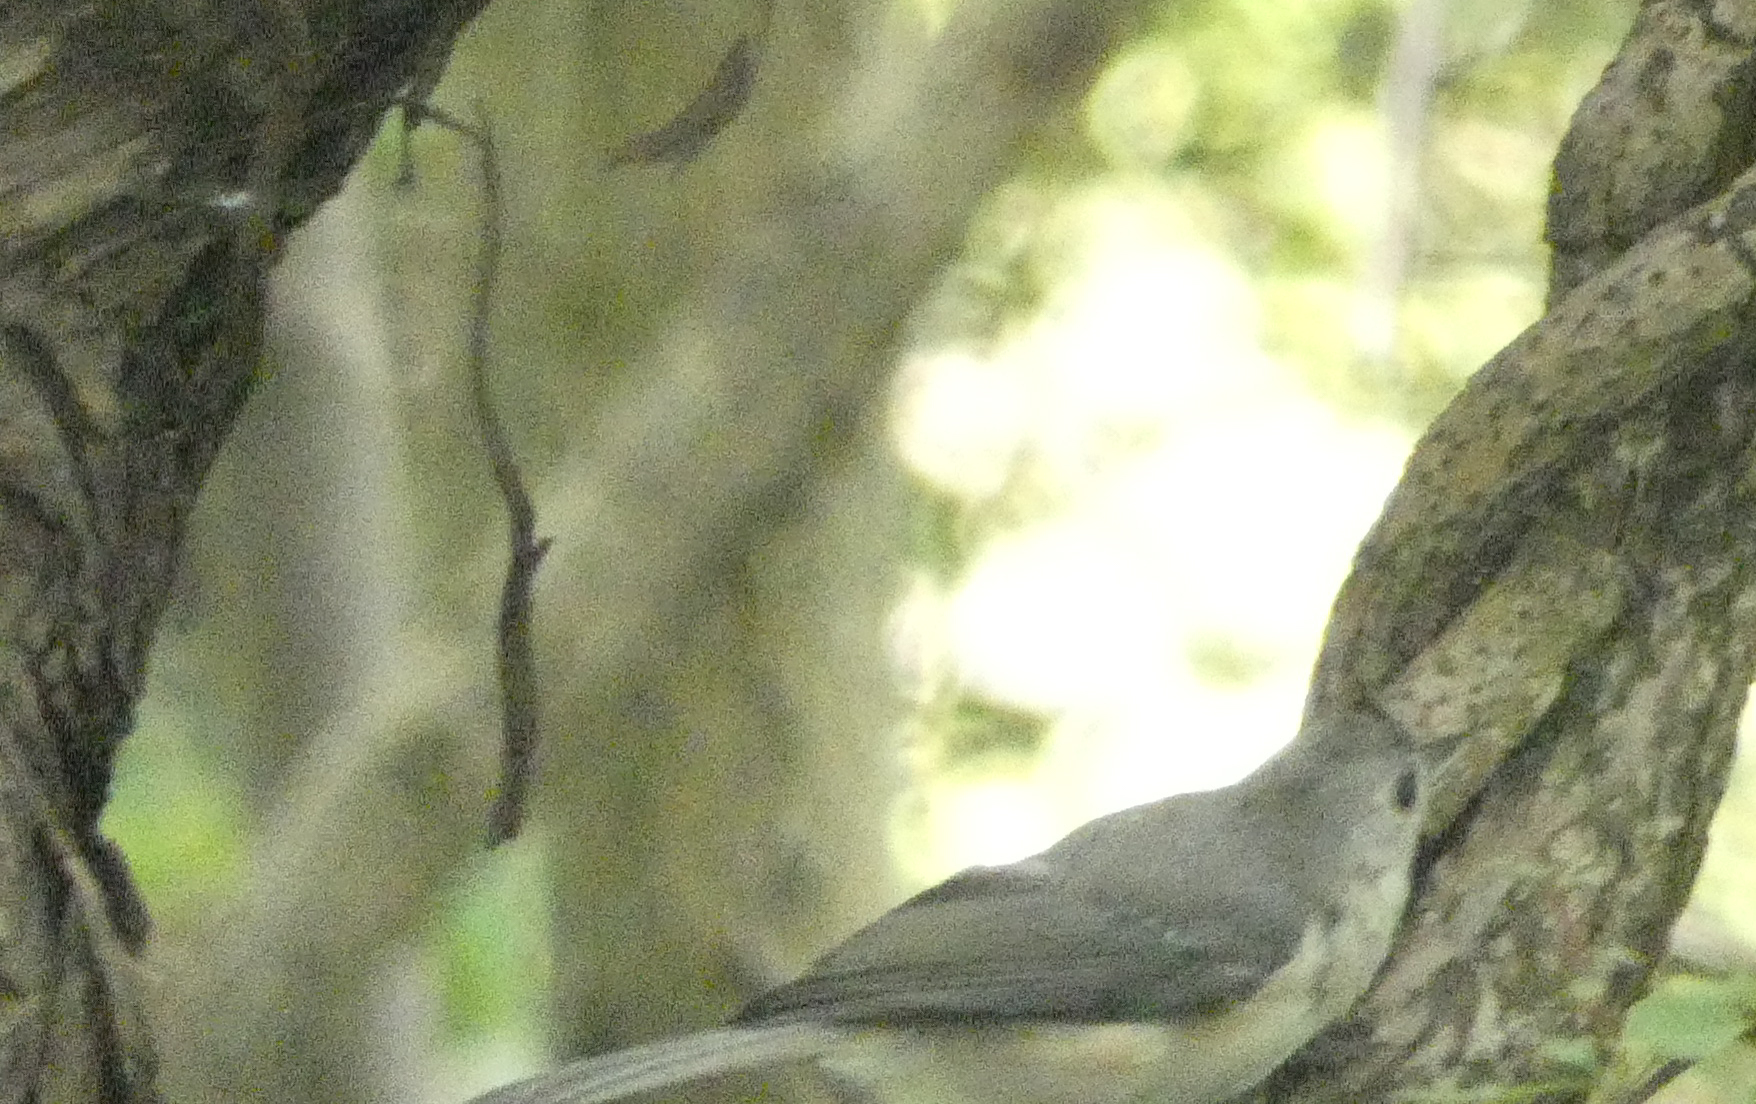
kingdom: Animalia
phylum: Chordata
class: Aves
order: Passeriformes
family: Paridae
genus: Baeolophus
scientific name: Baeolophus bicolor
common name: Tufted titmouse
